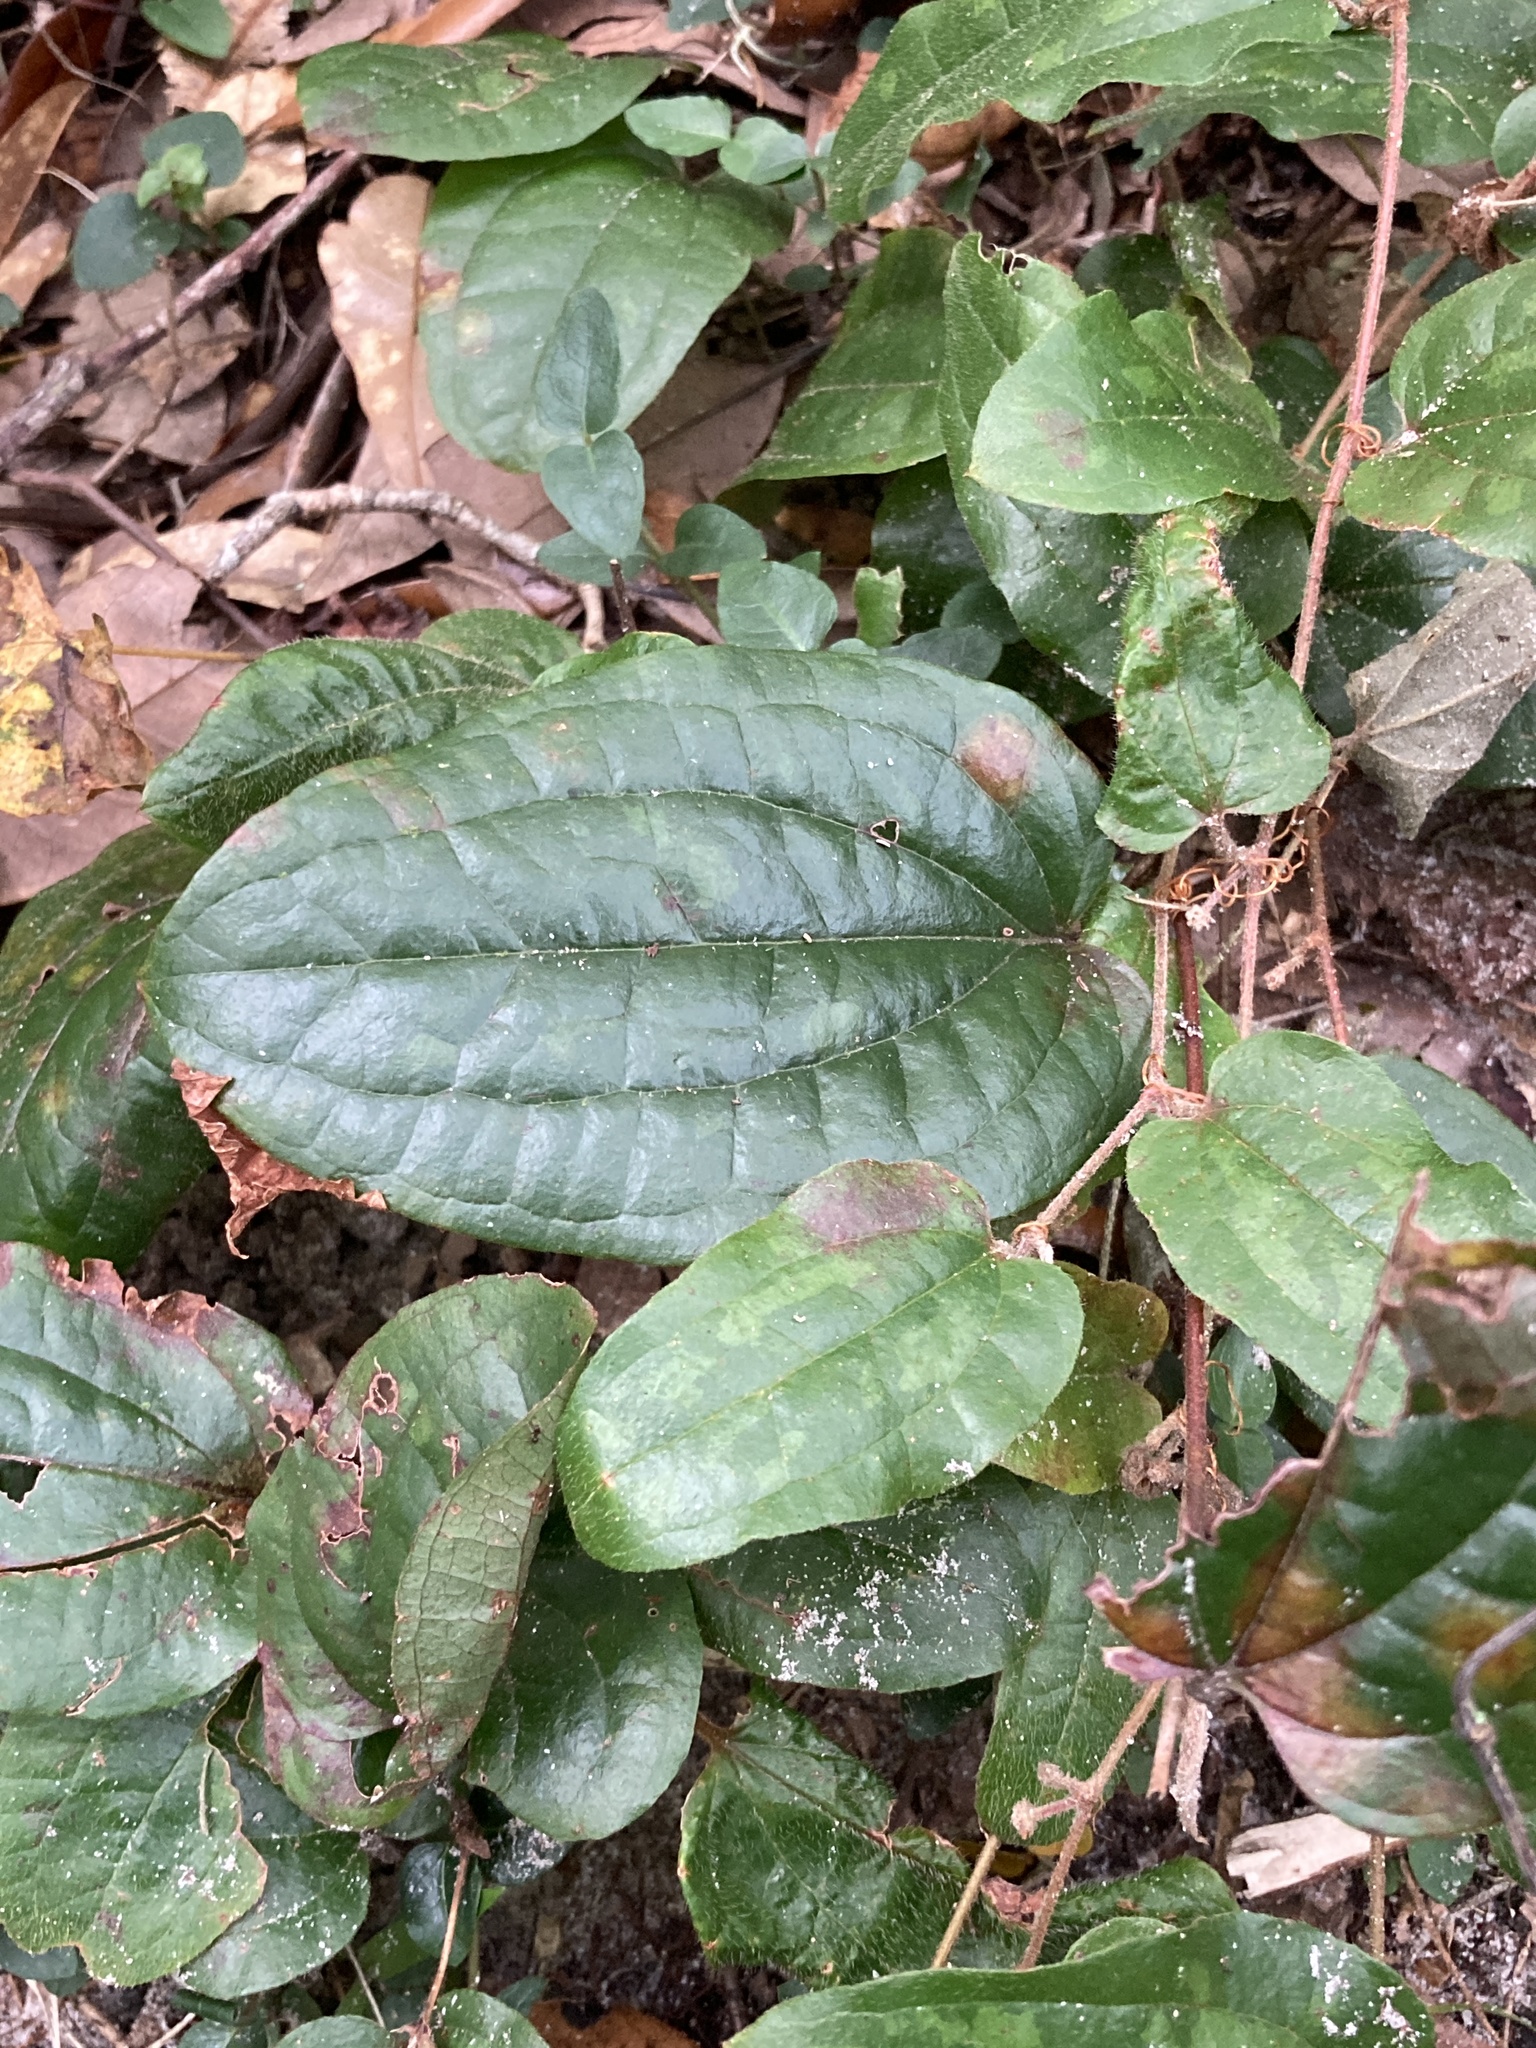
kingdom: Plantae
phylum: Tracheophyta
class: Liliopsida
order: Liliales
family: Smilacaceae
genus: Smilax
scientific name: Smilax pumila
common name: Sarsaparilla-vine
